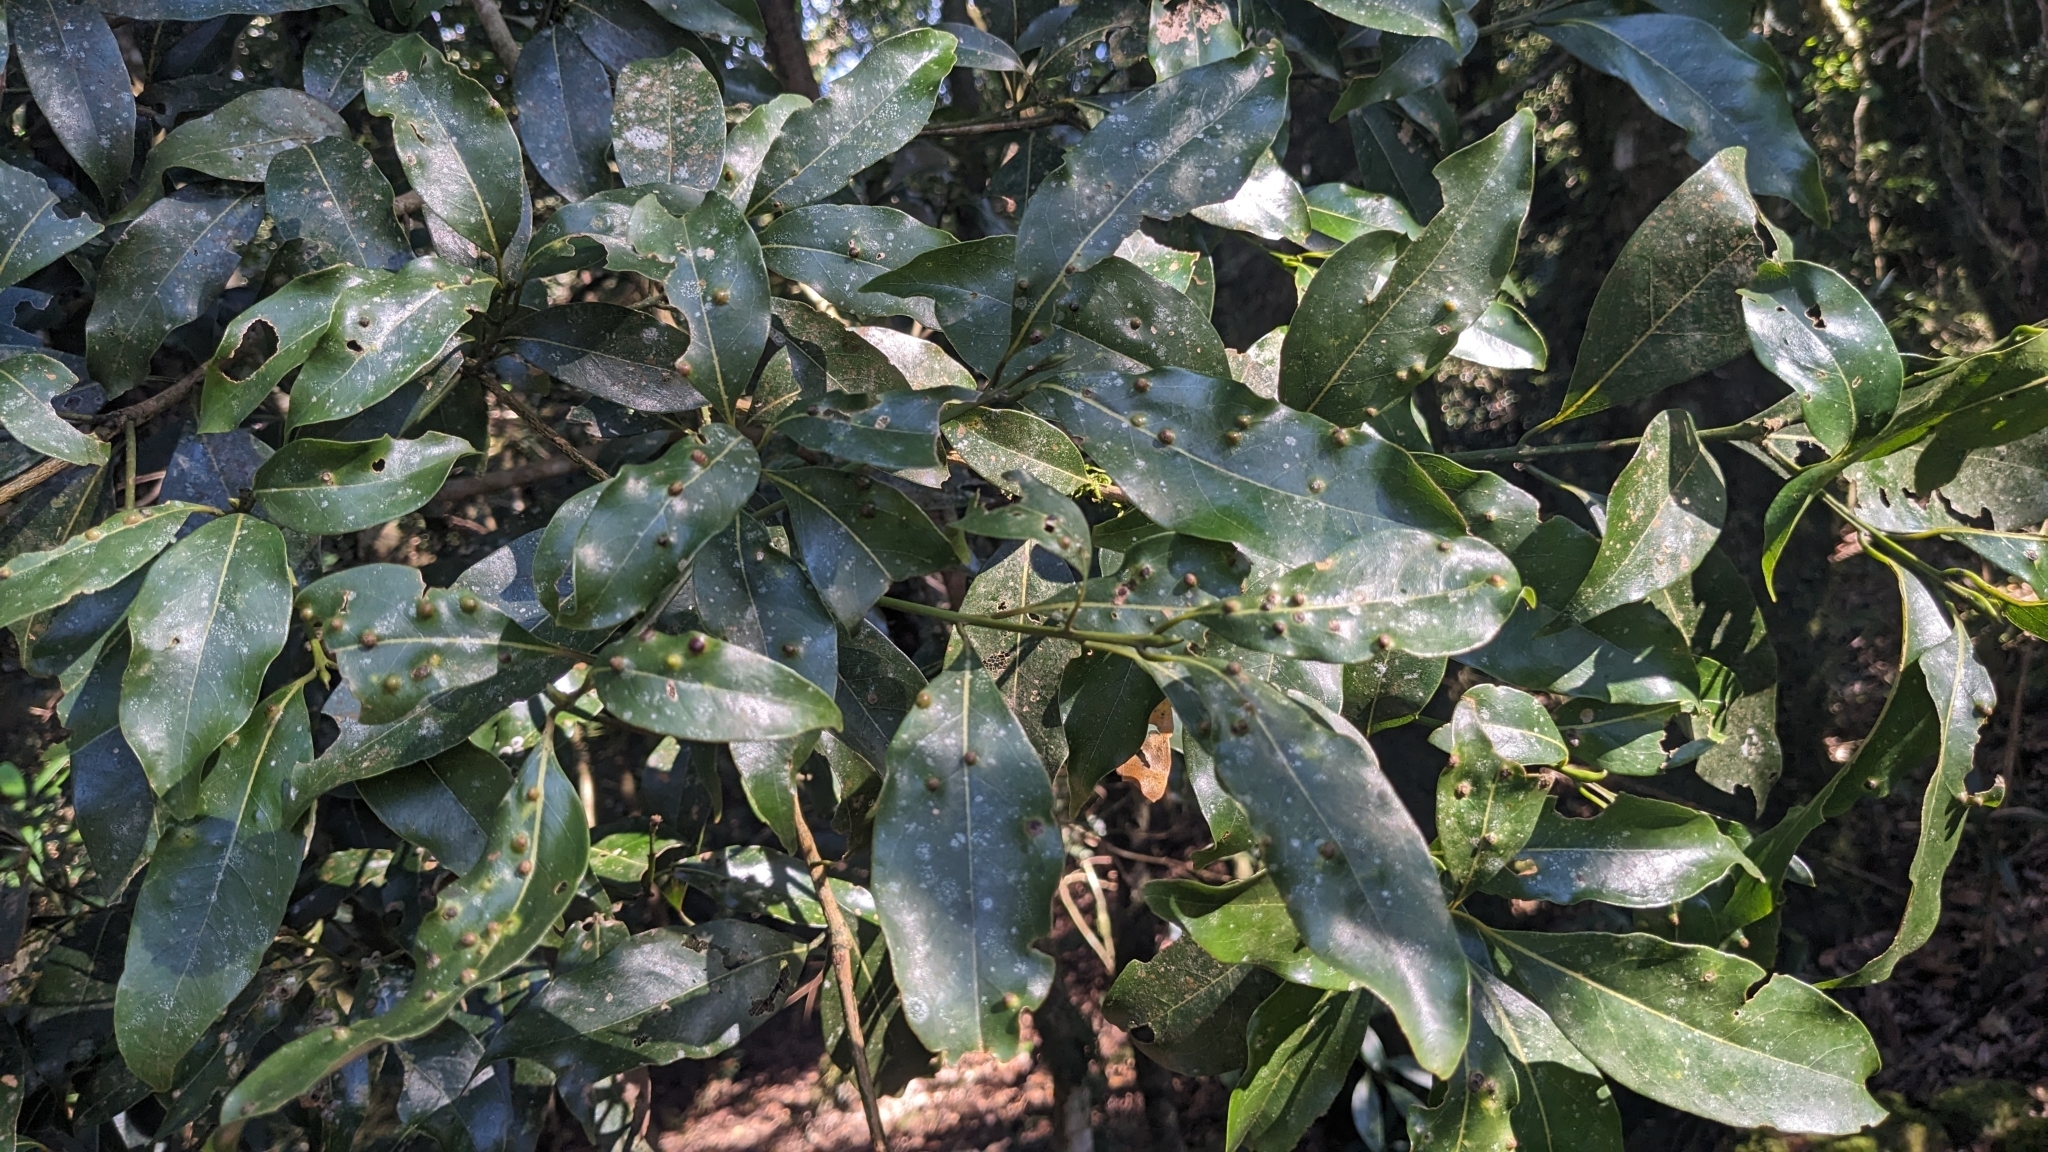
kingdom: Animalia
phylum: Arthropoda
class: Insecta
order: Hemiptera
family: Triozidae
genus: Trioza
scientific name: Trioza parabeilschmiediae
